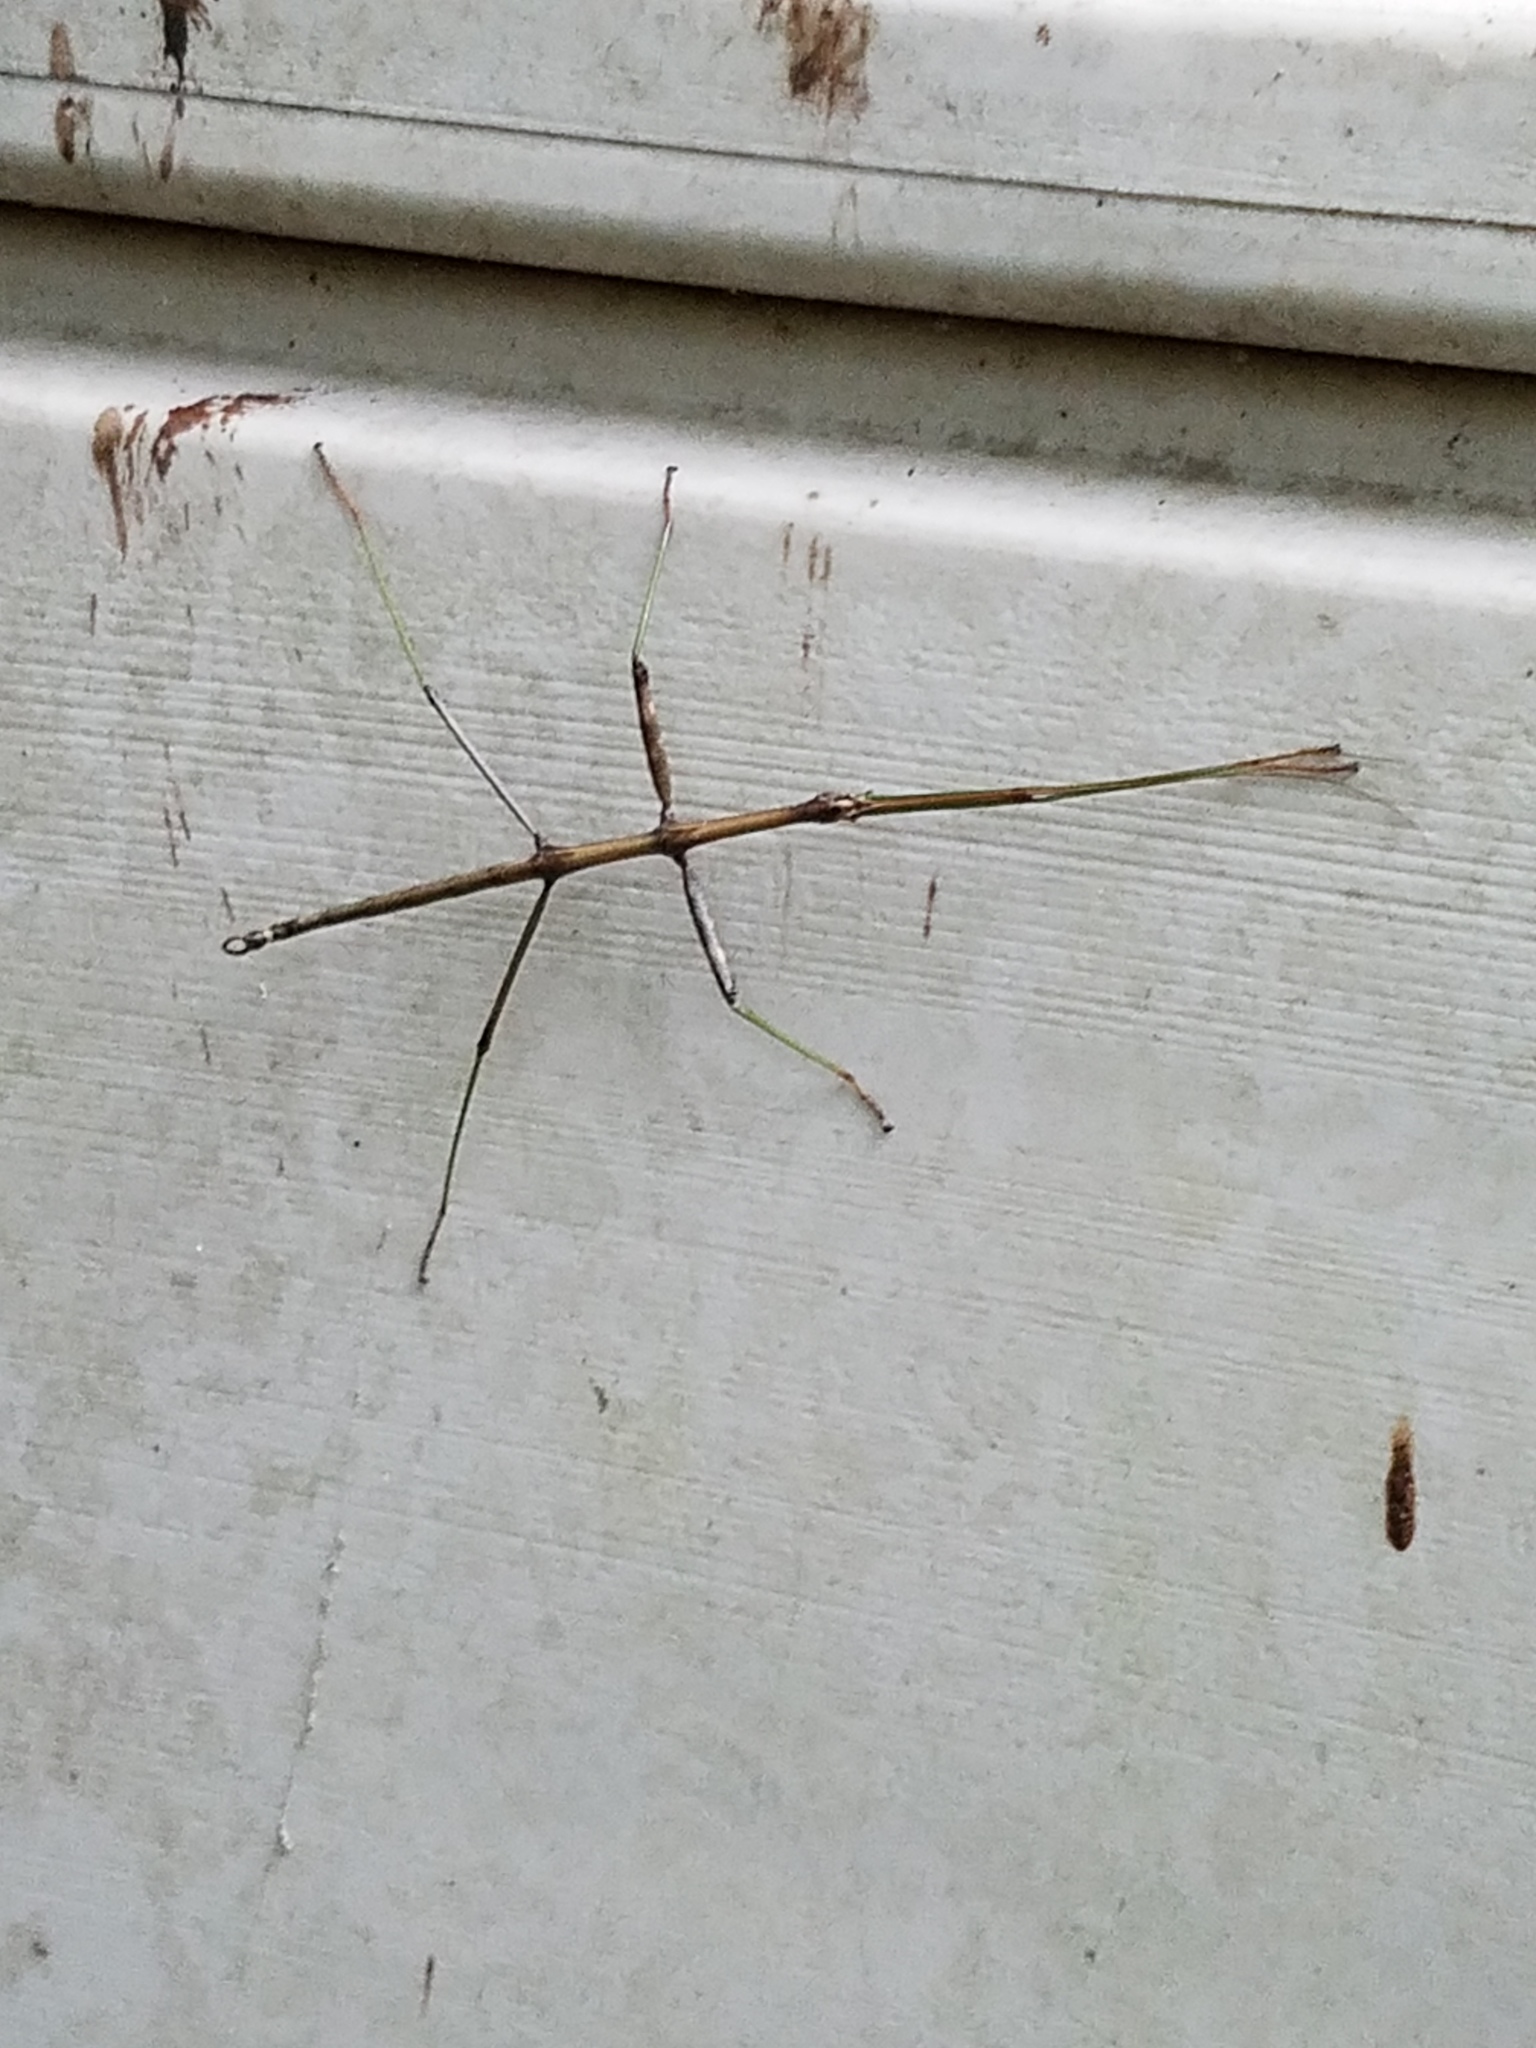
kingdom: Animalia
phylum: Arthropoda
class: Insecta
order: Phasmida
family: Diapheromeridae
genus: Diapheromera
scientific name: Diapheromera femorata
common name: Common american walkingstick
